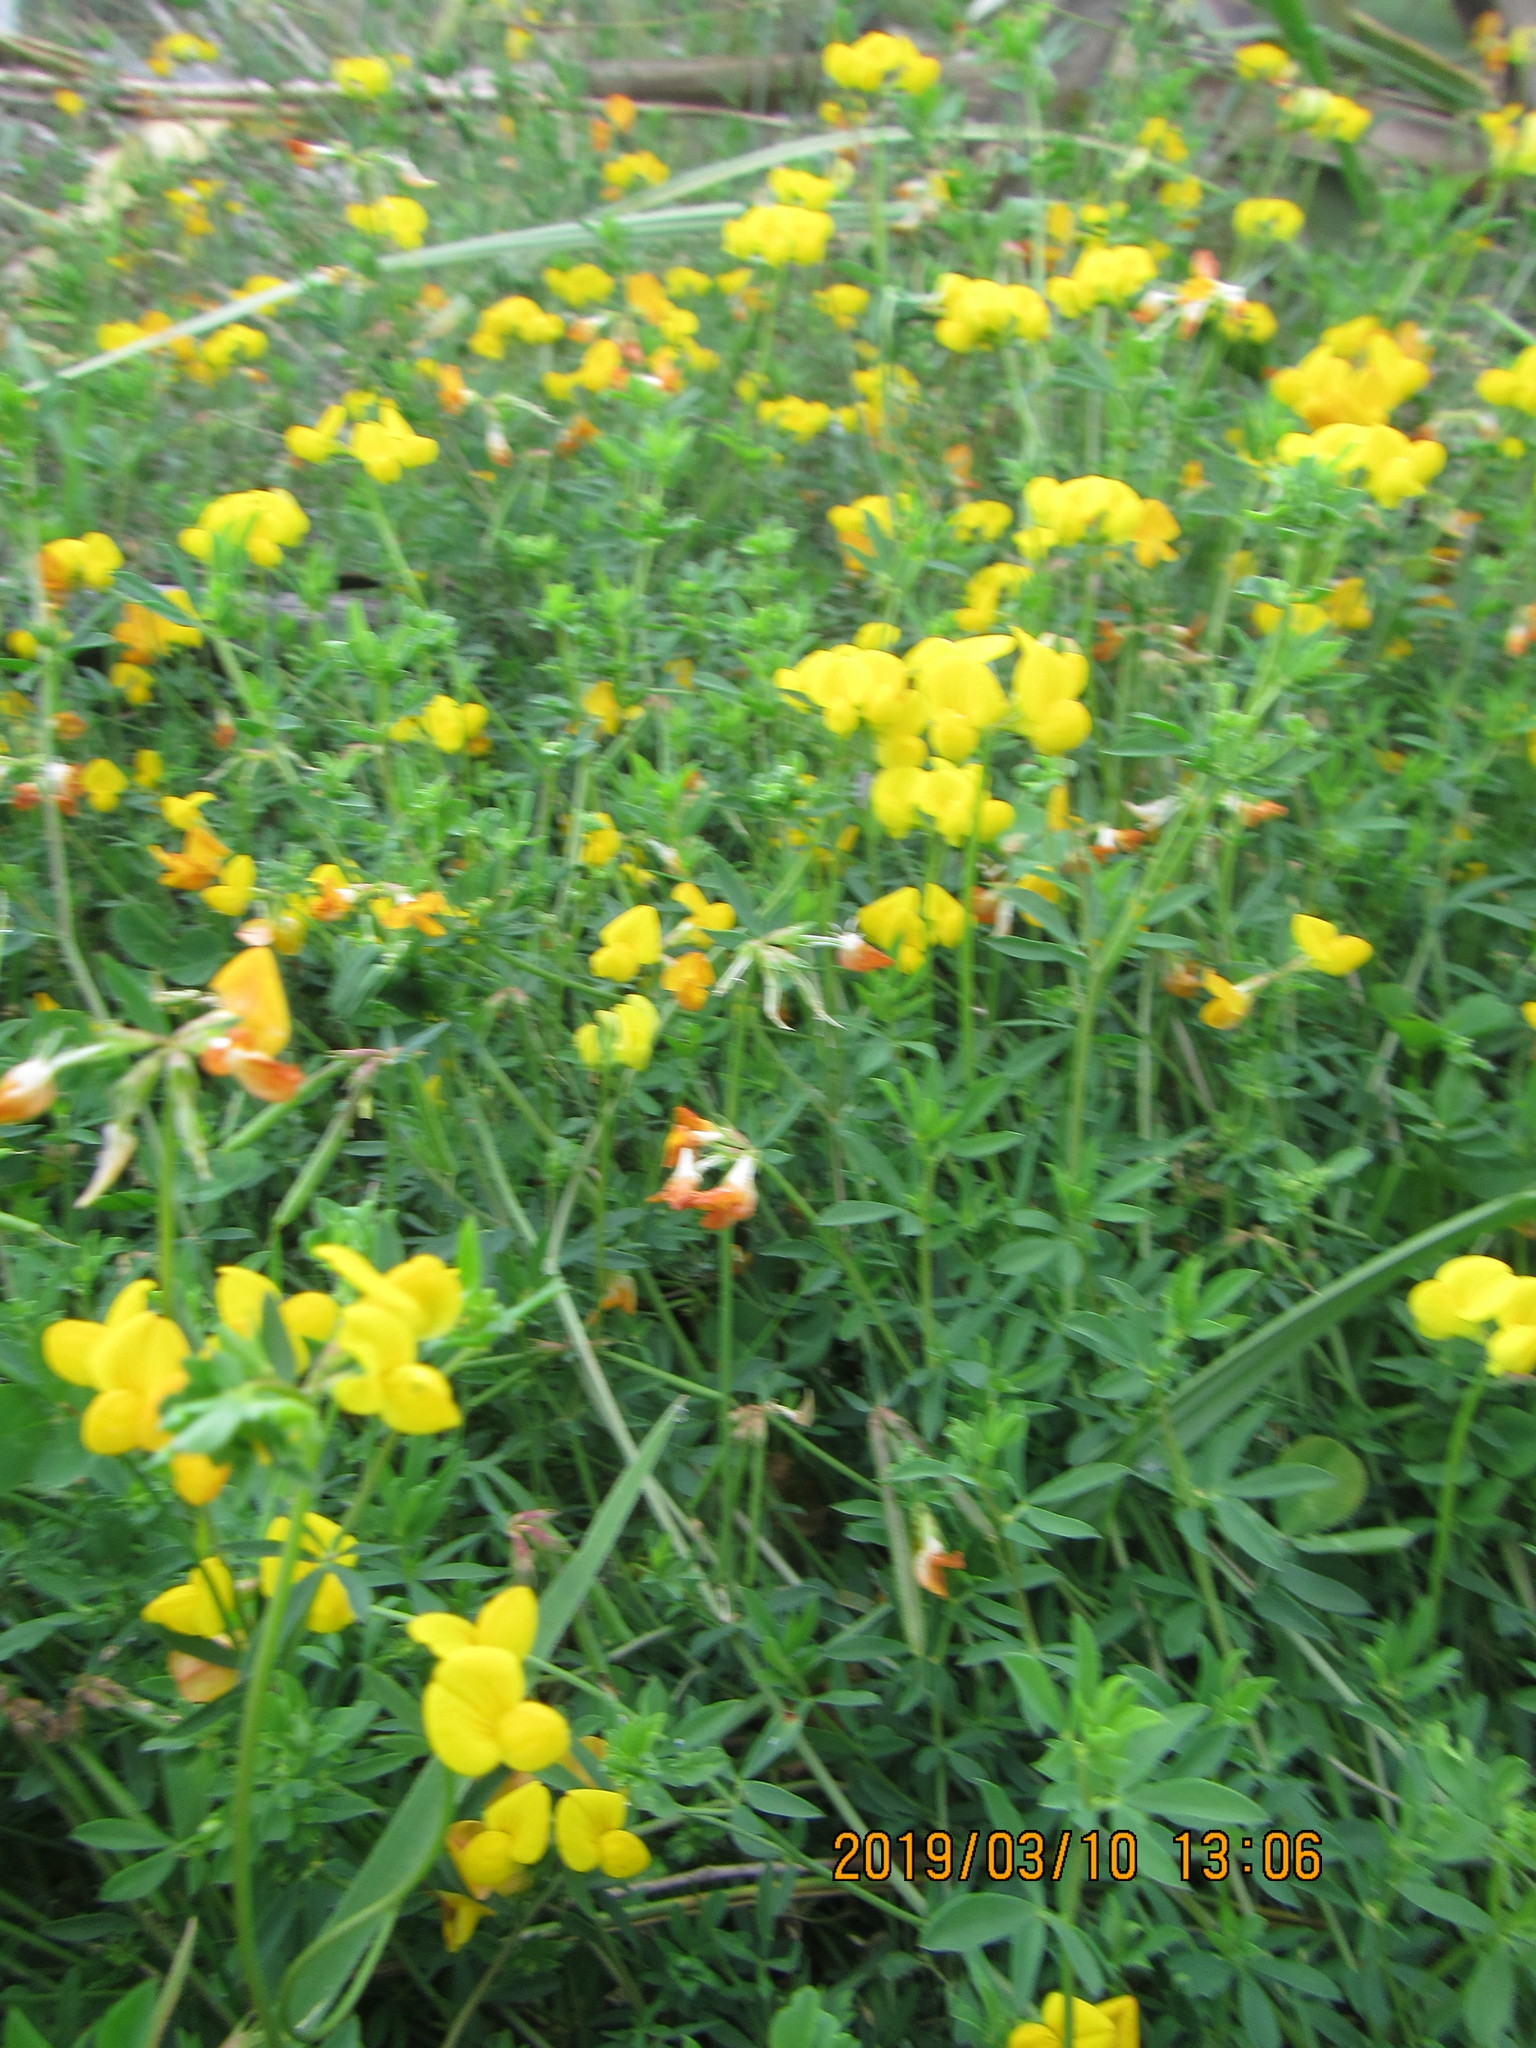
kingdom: Plantae
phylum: Tracheophyta
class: Magnoliopsida
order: Fabales
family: Fabaceae
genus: Lotus
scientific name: Lotus tenuis
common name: Narrow-leaved bird's-foot-trefoil
